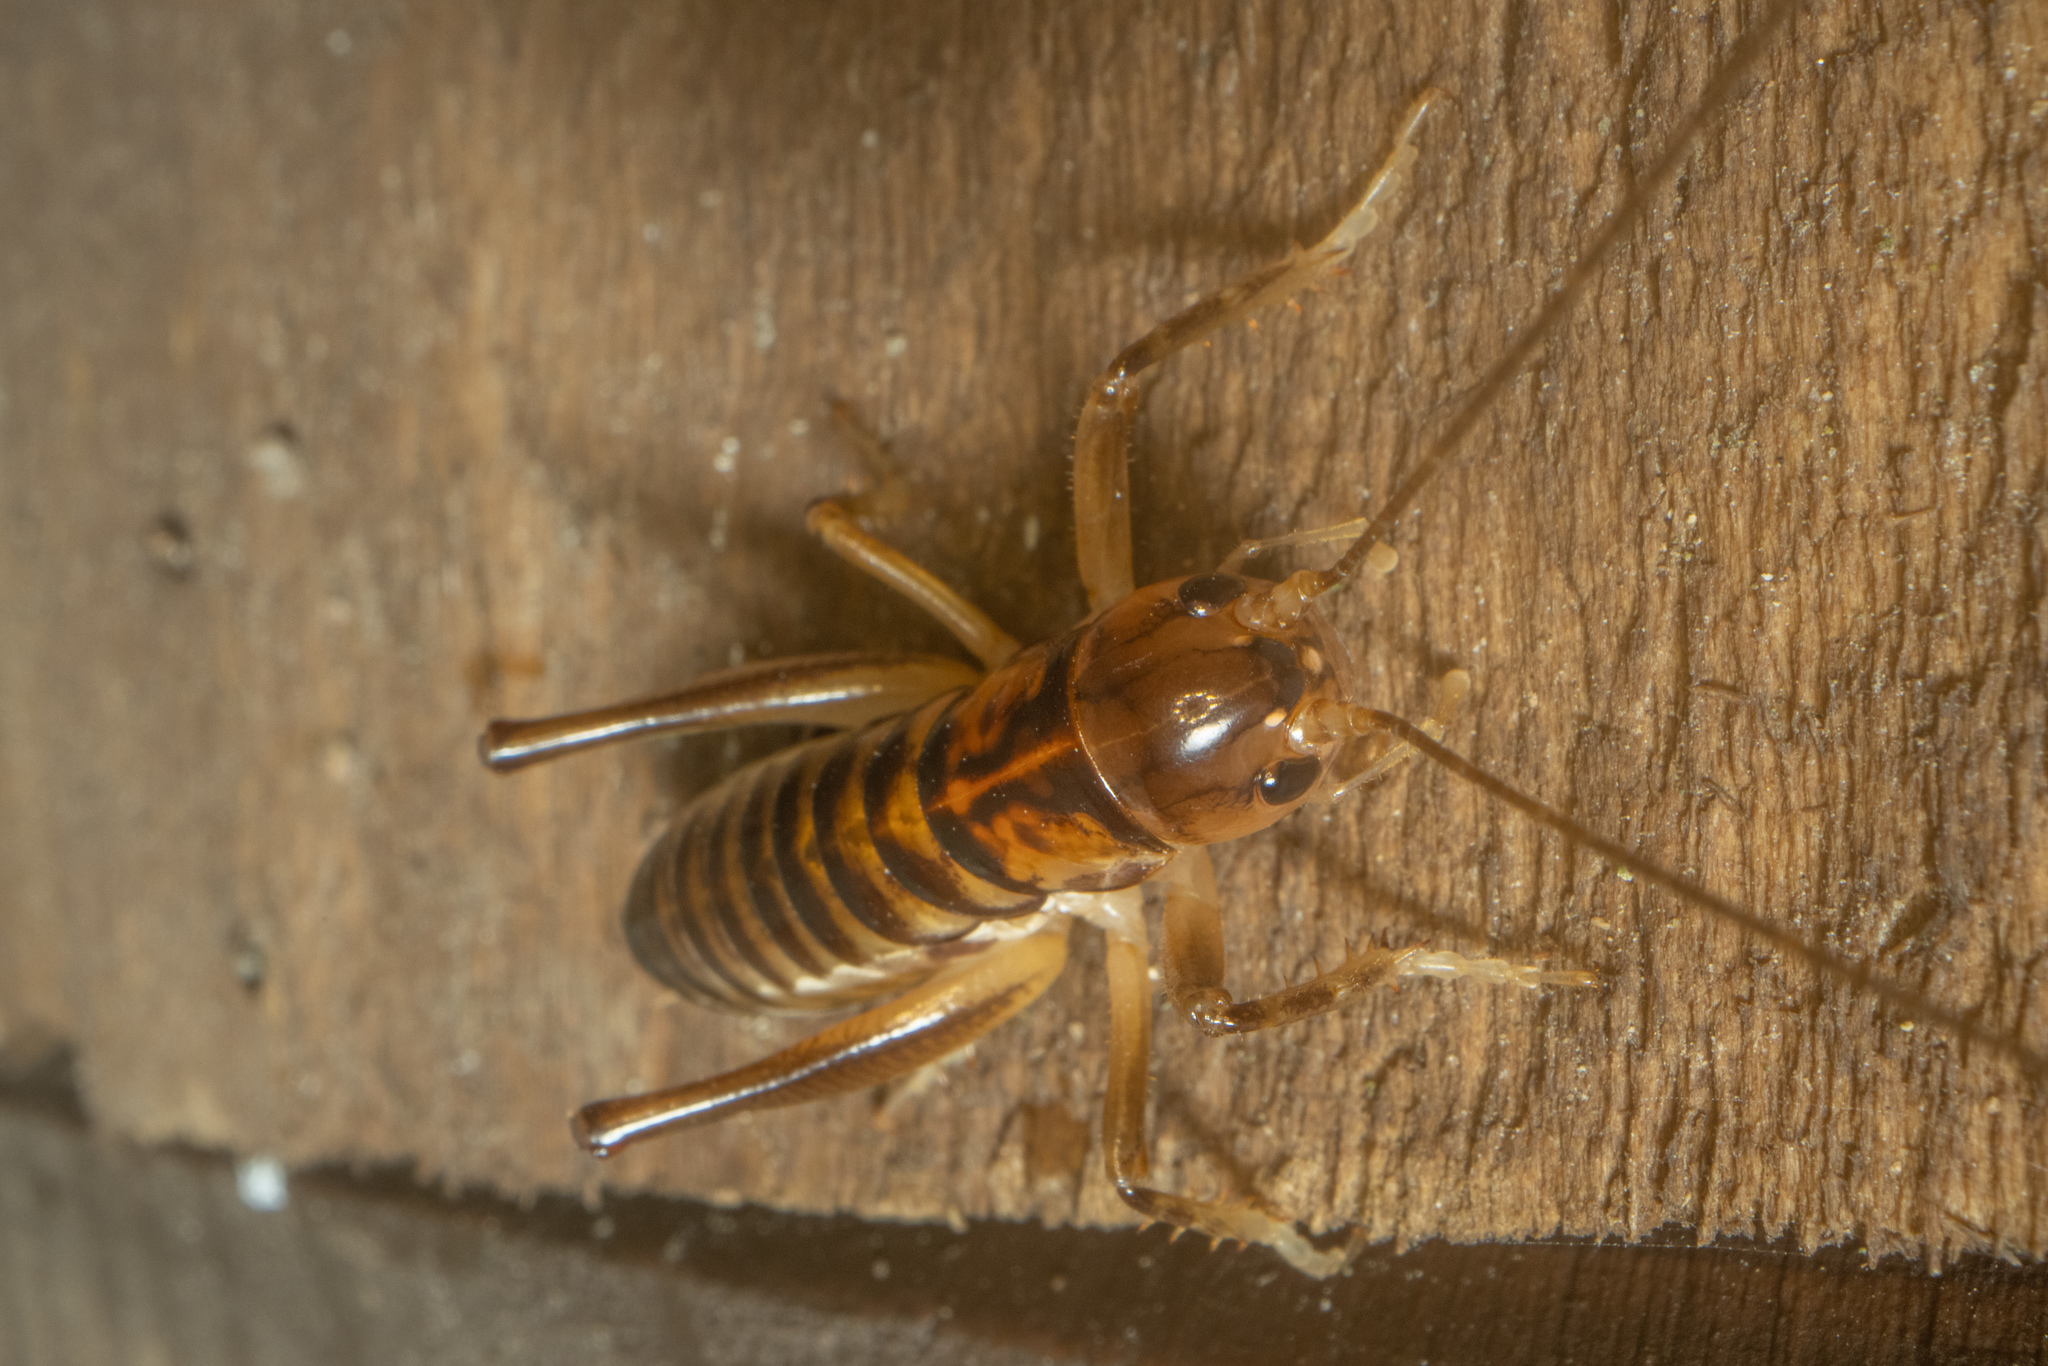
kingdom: Animalia
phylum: Arthropoda
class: Insecta
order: Orthoptera
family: Anostostomatidae
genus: Hemiandrus
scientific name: Hemiandrus pallitarsis
